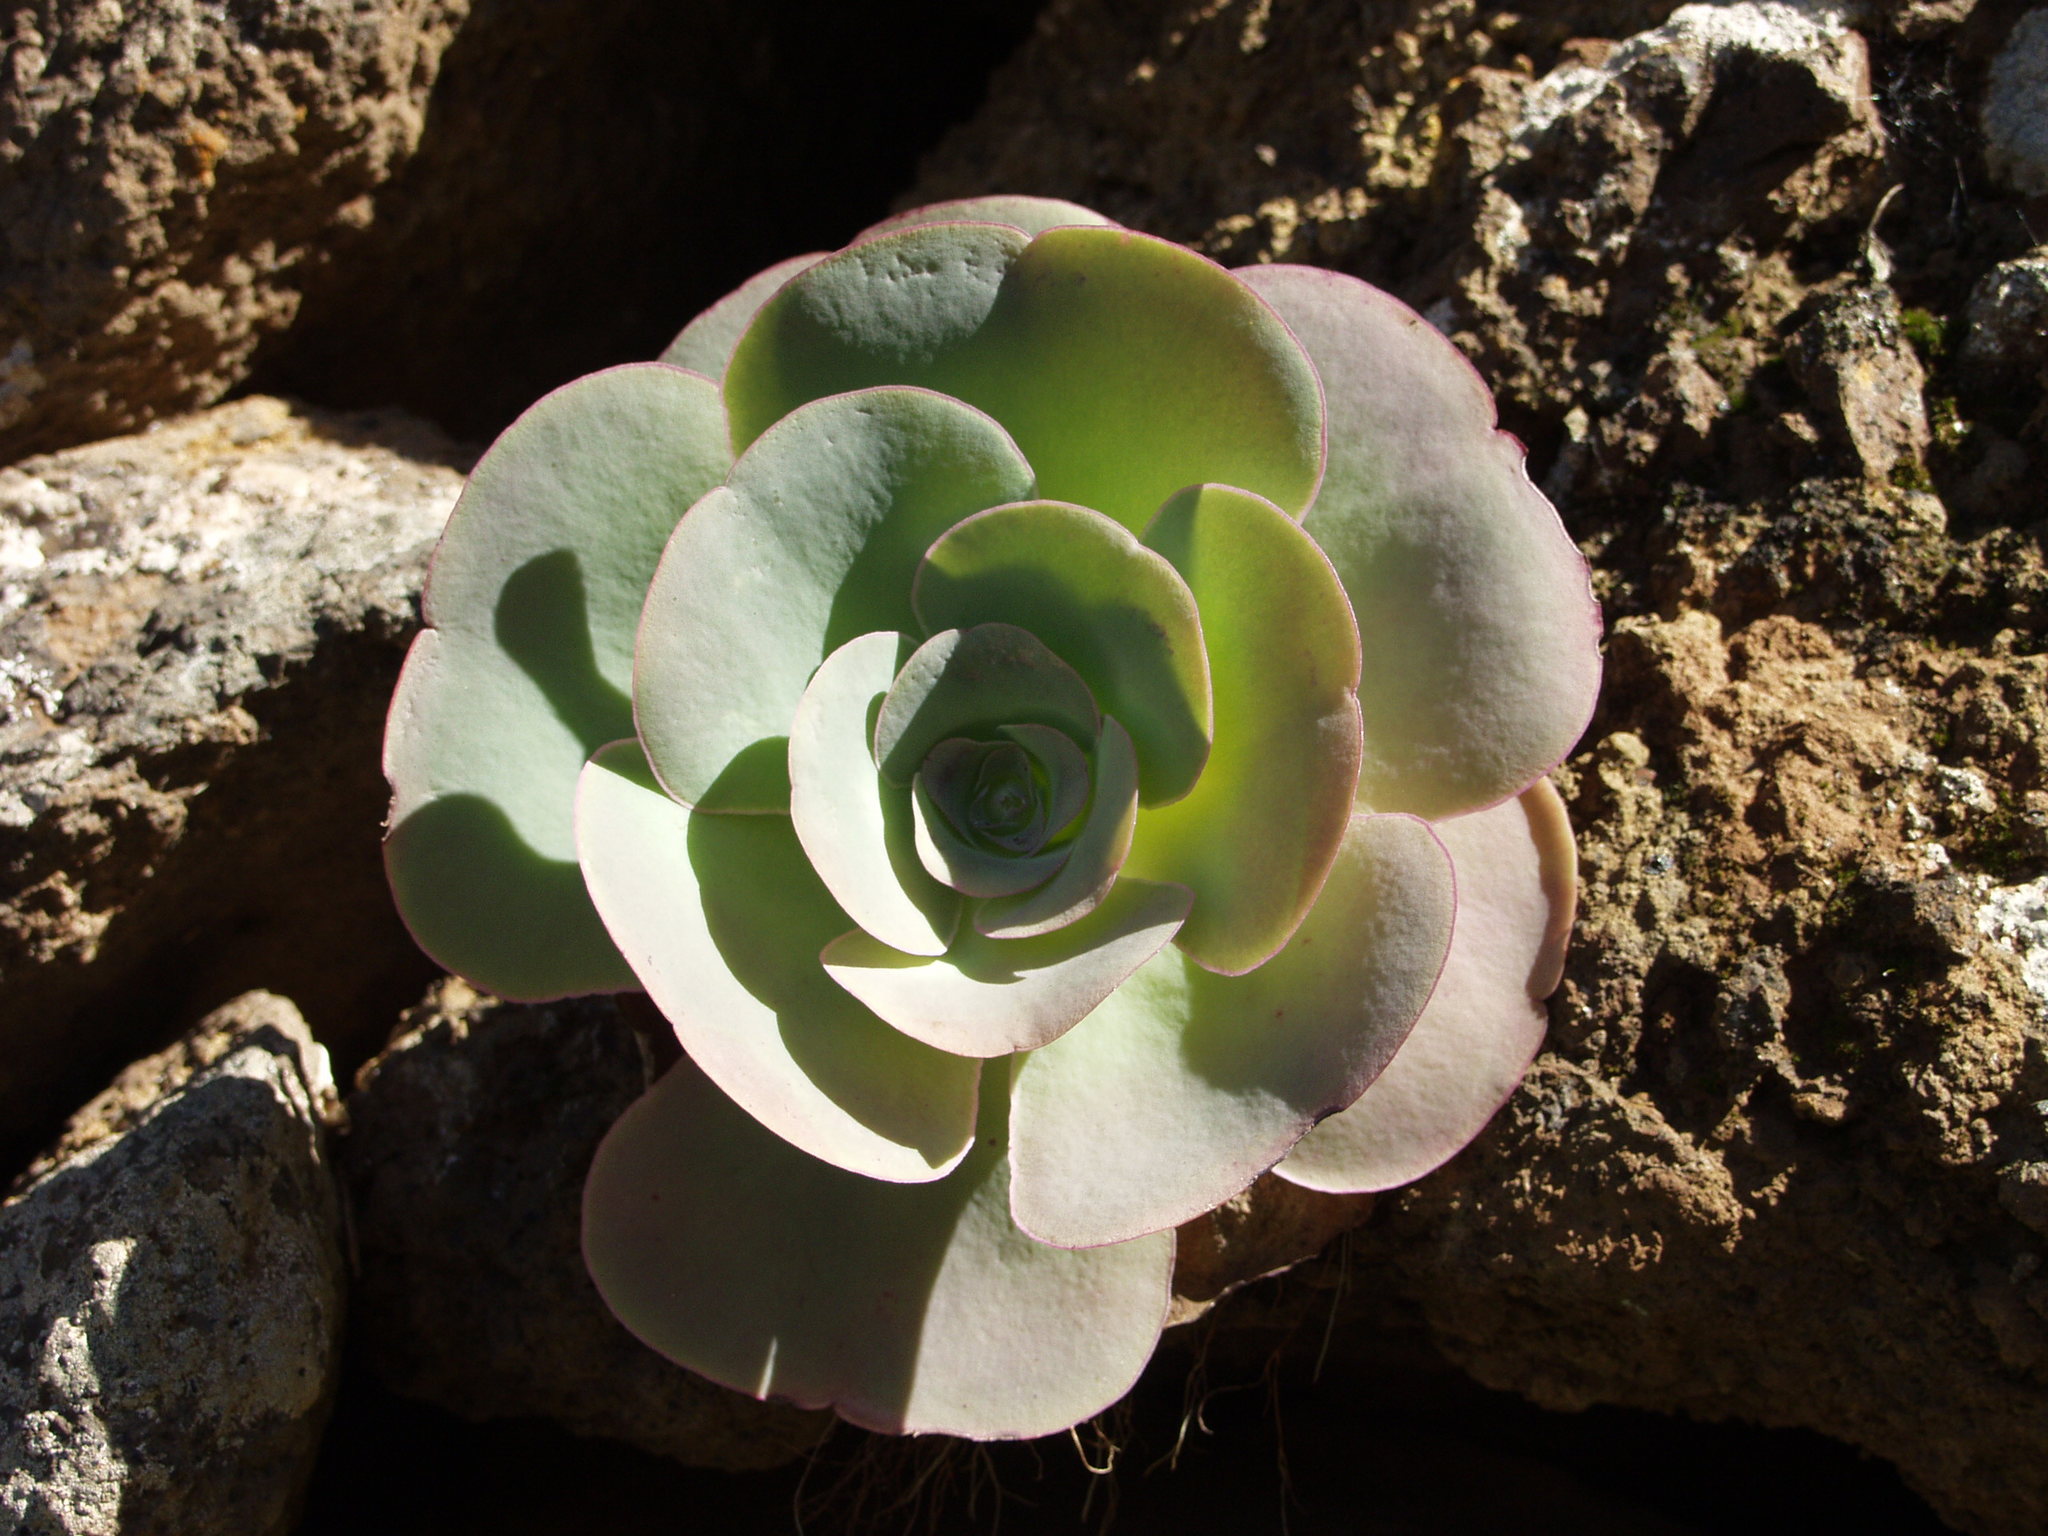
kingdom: Plantae
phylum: Tracheophyta
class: Magnoliopsida
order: Saxifragales
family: Crassulaceae
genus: Aeonium
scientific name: Aeonium diplocyclum
